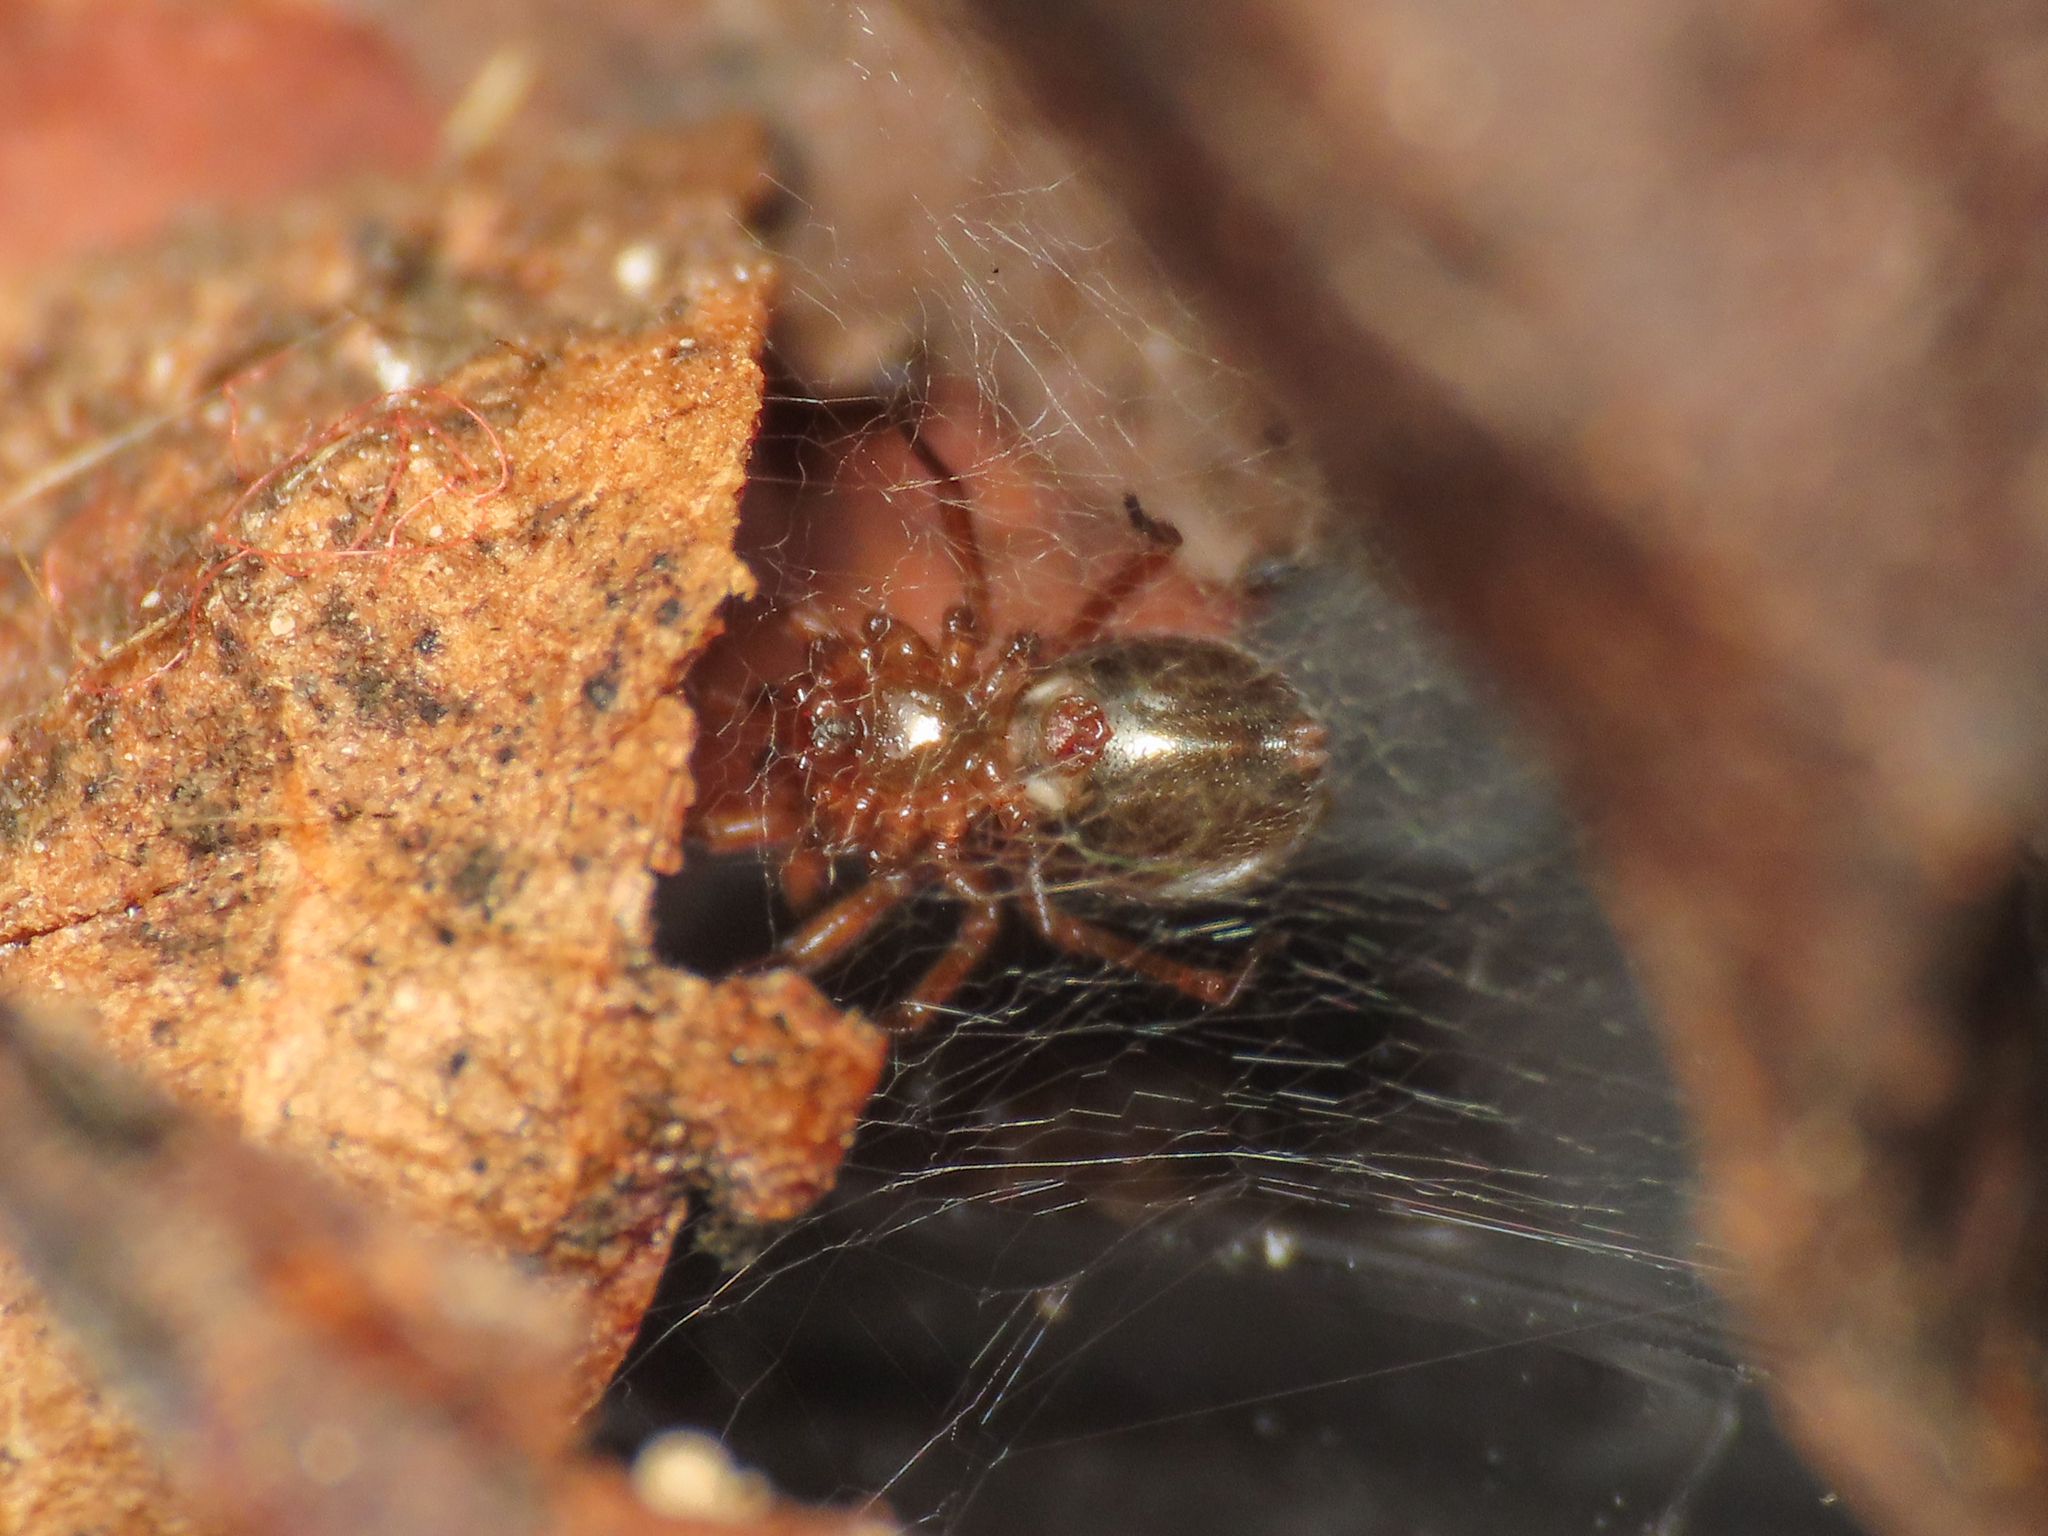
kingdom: Animalia
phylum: Arthropoda
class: Arachnida
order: Araneae
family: Linyphiidae
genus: Centromerus
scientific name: Centromerus tongiorgii
